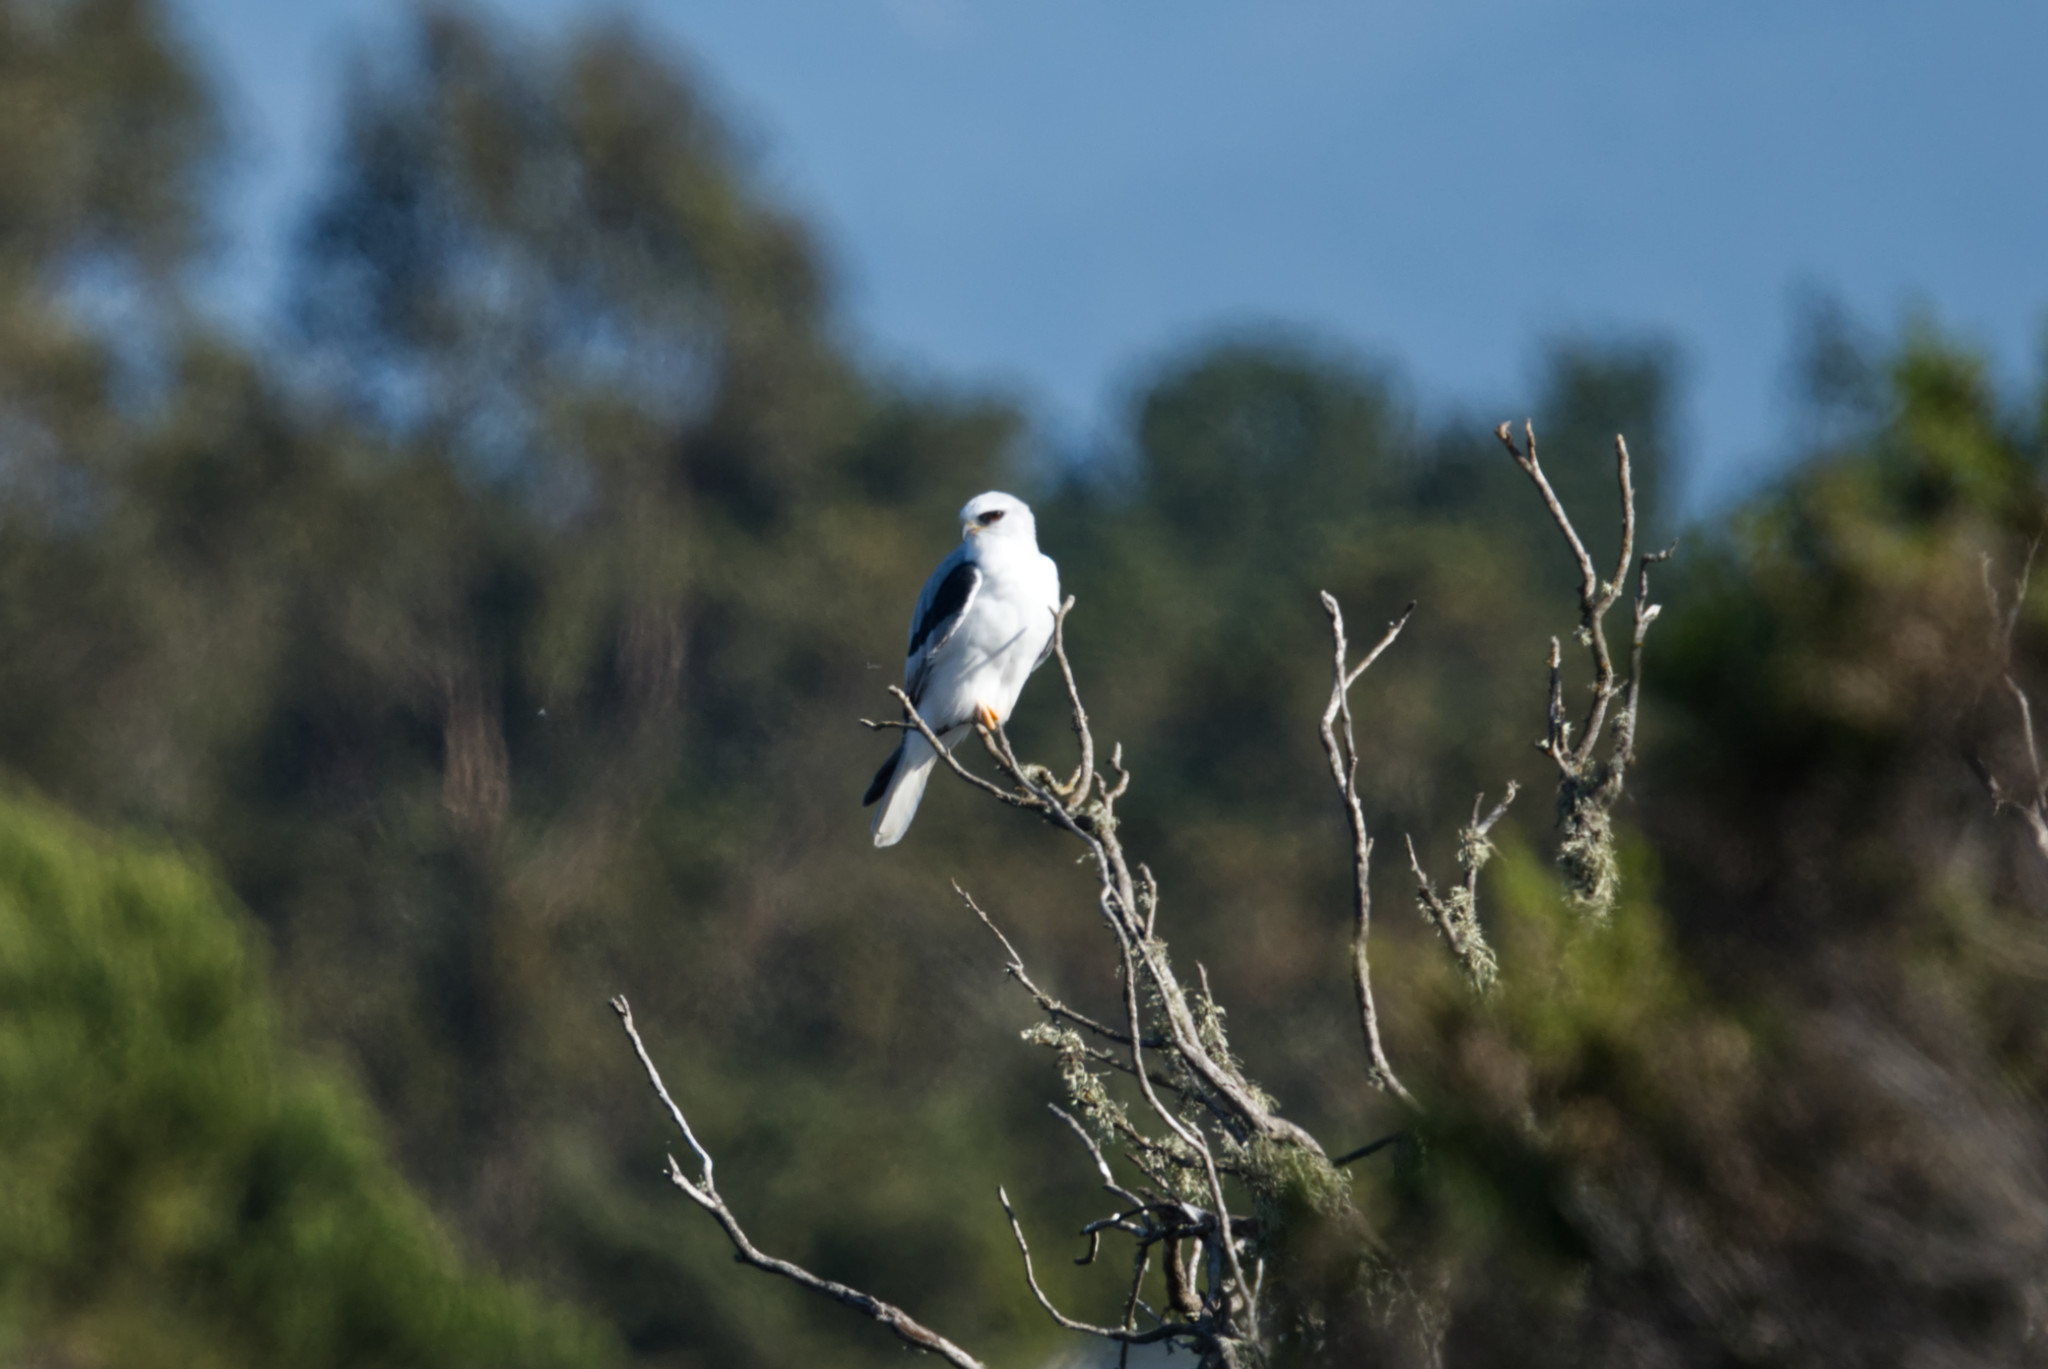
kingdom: Animalia
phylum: Chordata
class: Aves
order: Accipitriformes
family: Accipitridae
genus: Elanus
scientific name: Elanus leucurus
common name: White-tailed kite
